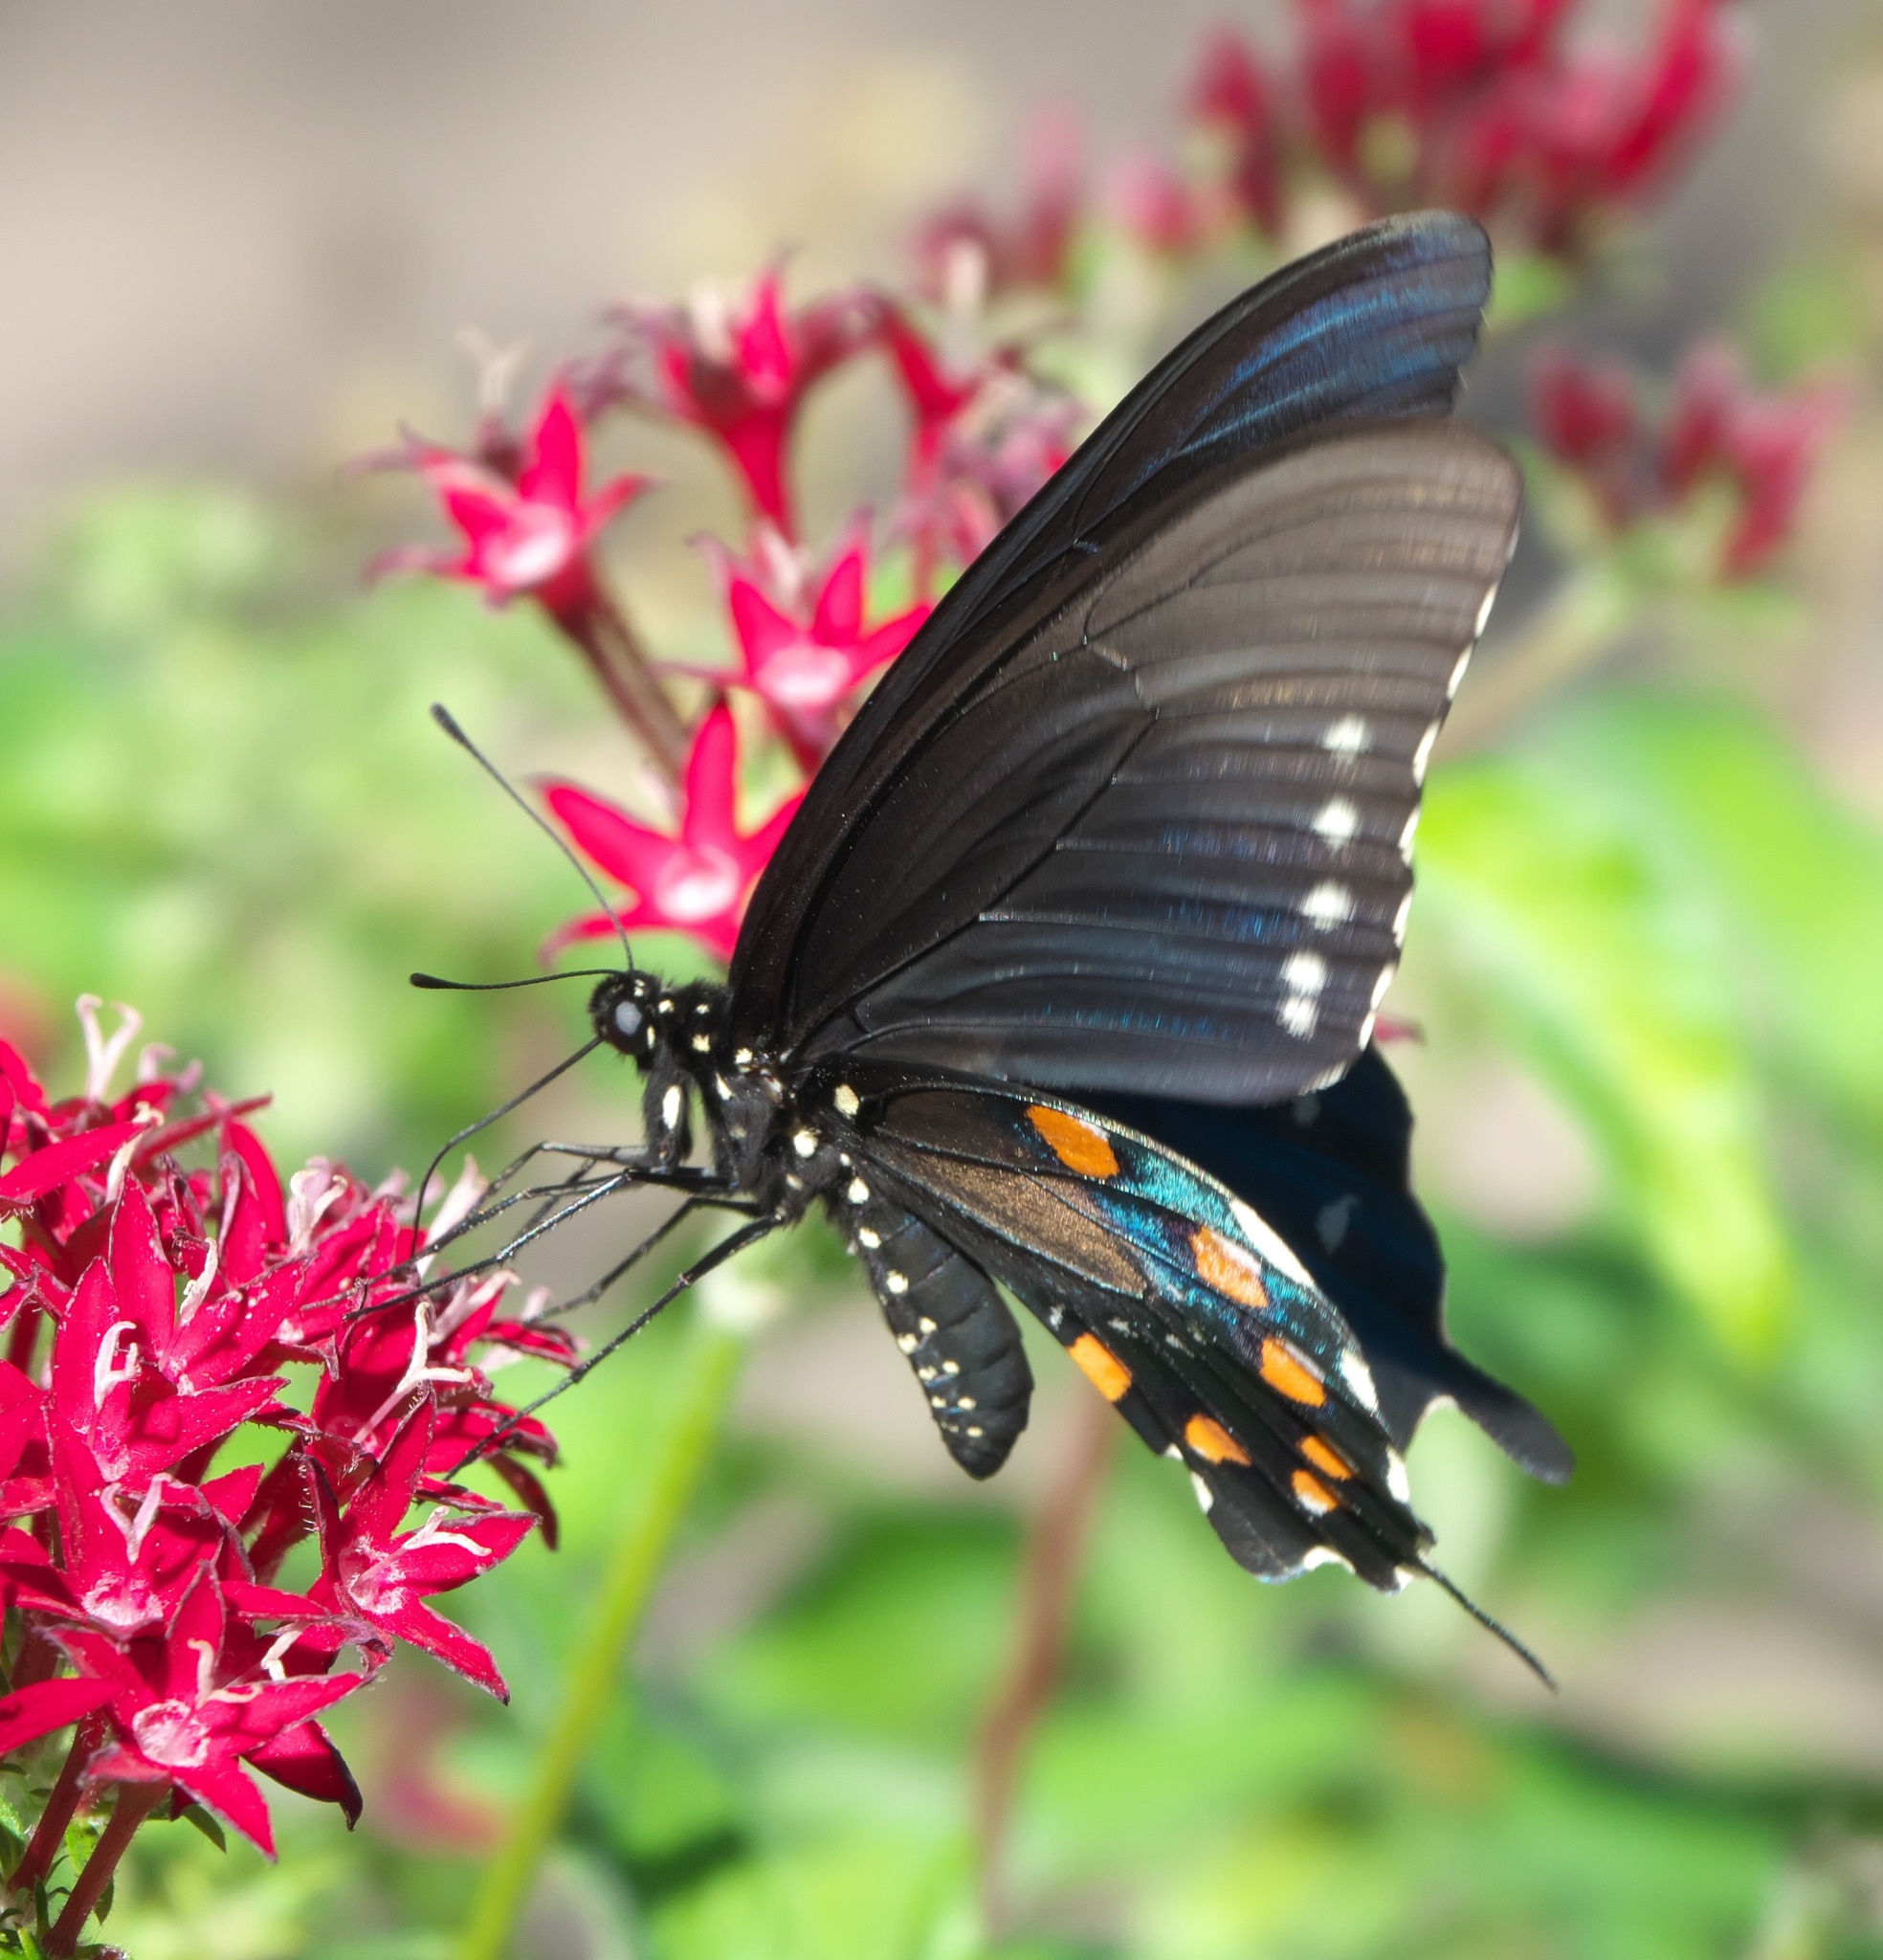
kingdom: Animalia
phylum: Arthropoda
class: Insecta
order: Lepidoptera
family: Papilionidae
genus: Battus
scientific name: Battus philenor
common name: Pipevine swallowtail
